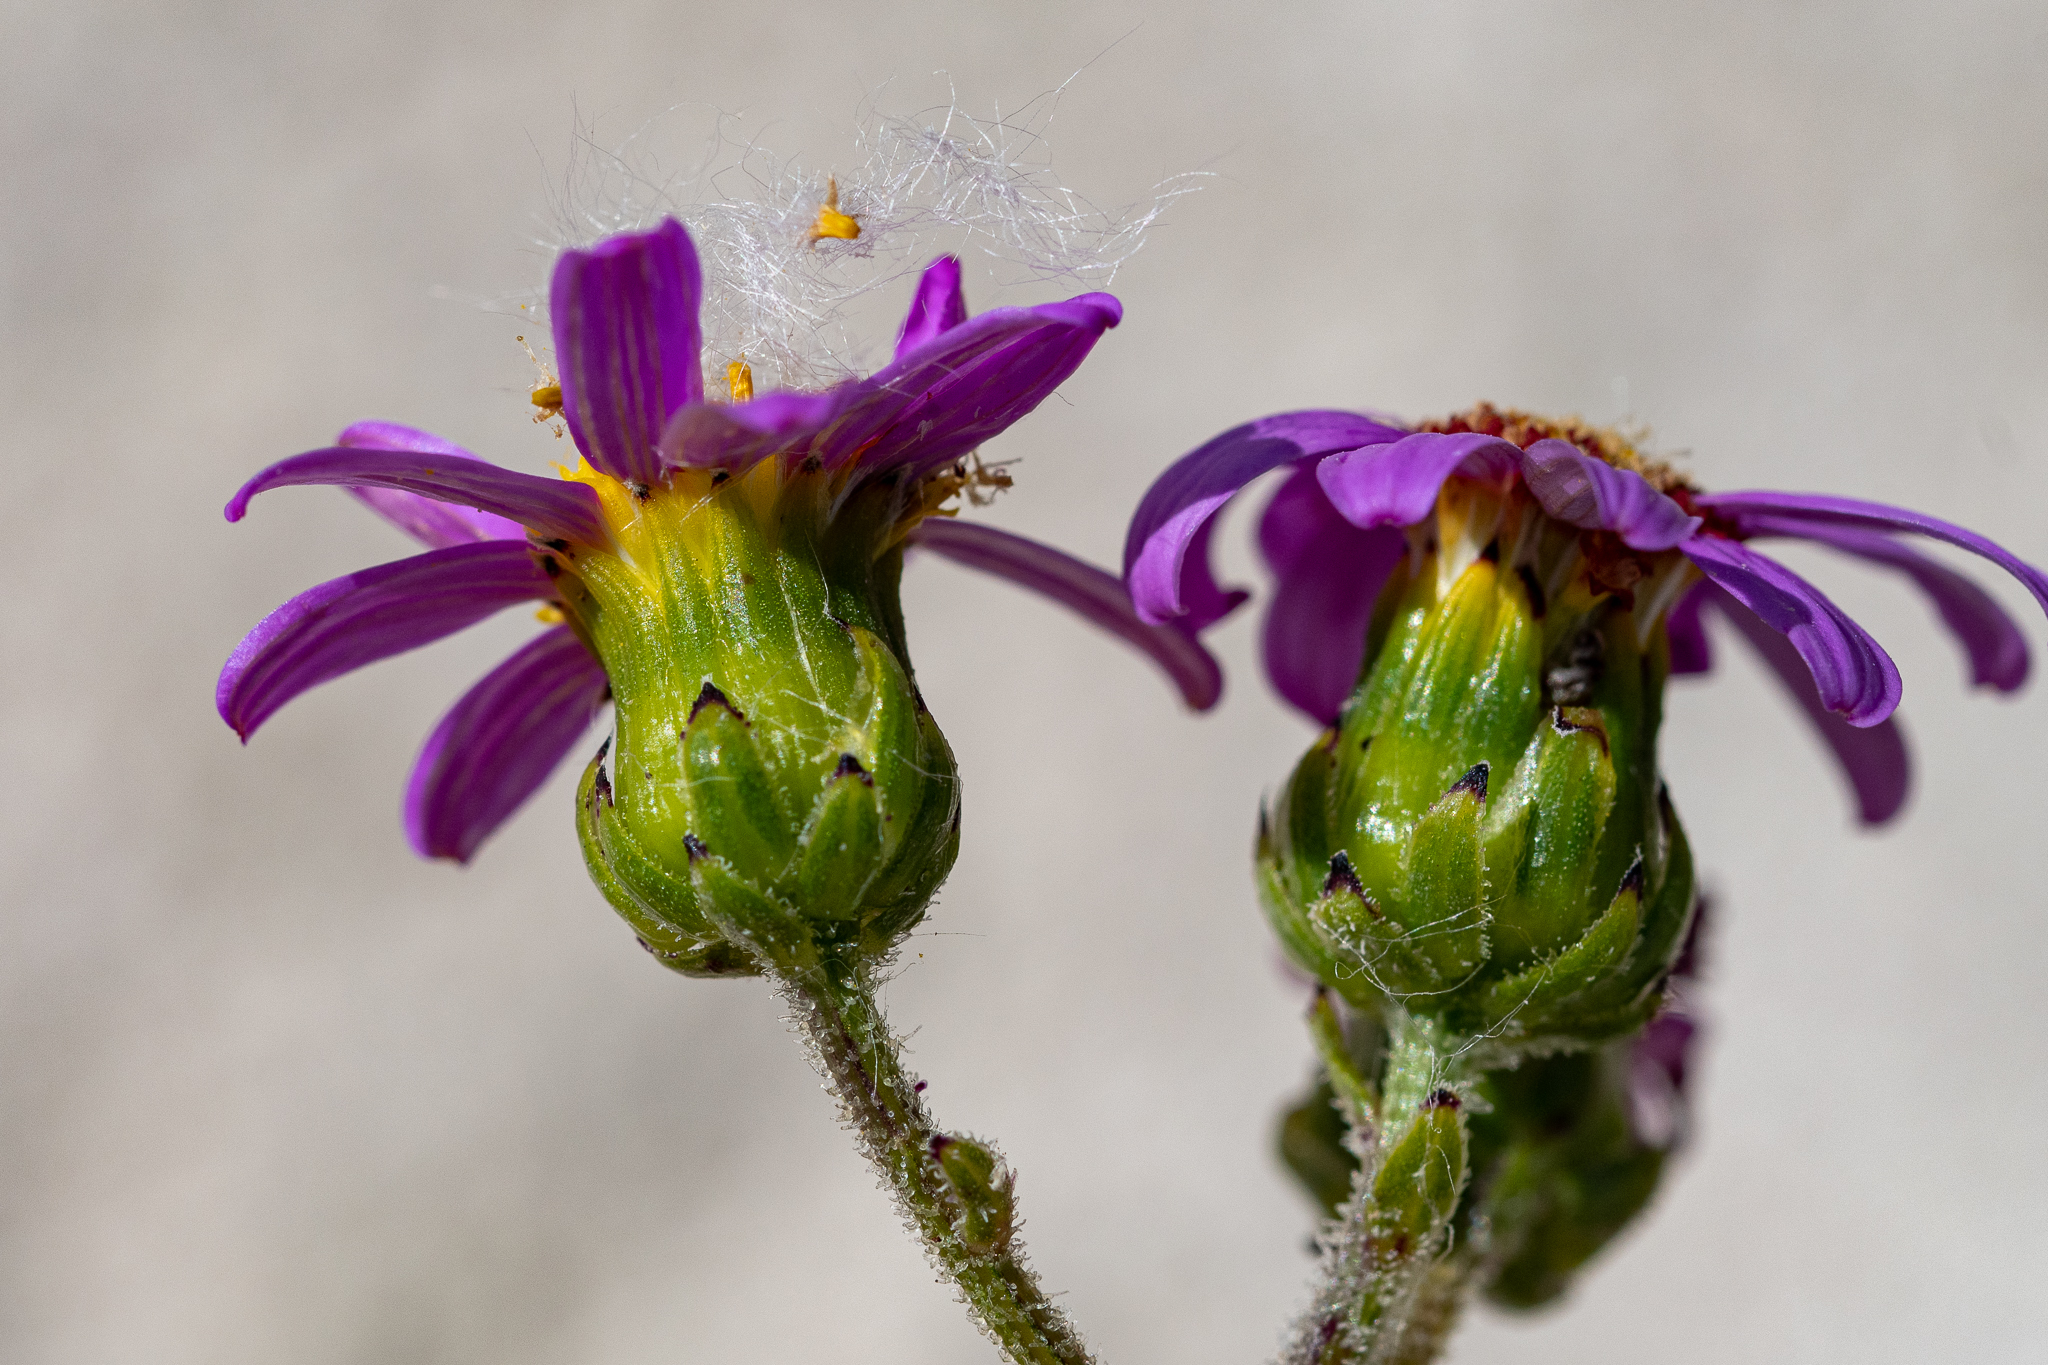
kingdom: Plantae
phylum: Tracheophyta
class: Magnoliopsida
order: Asterales
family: Asteraceae
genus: Senecio
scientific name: Senecio elegans
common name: Purple groundsel
